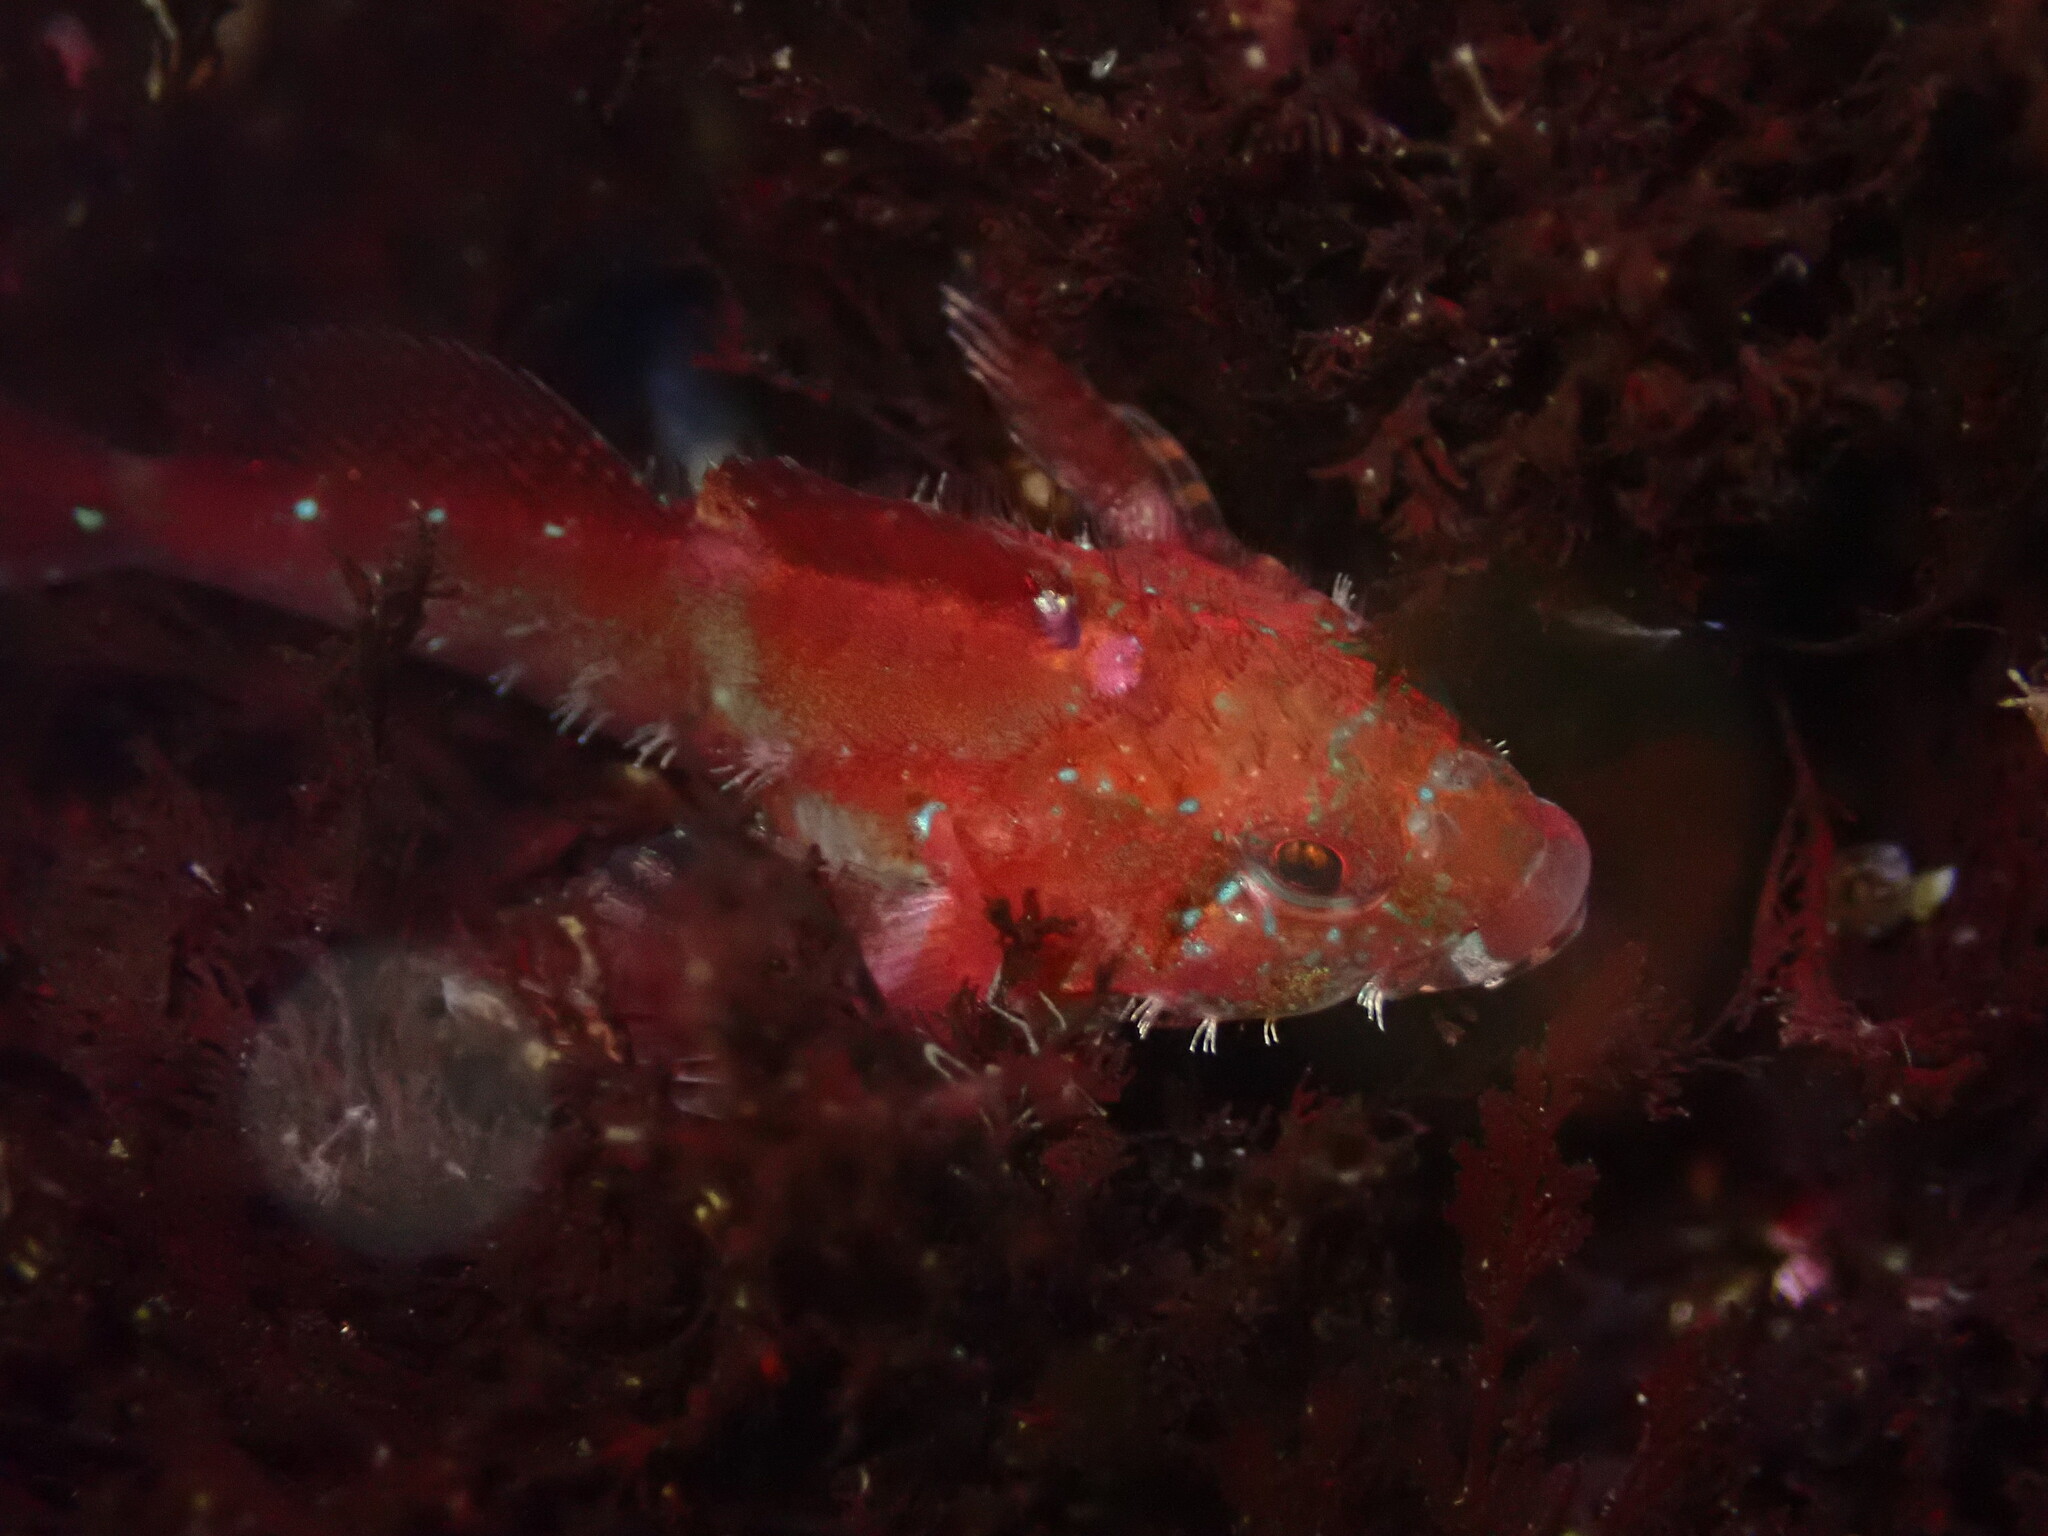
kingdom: Animalia
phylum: Chordata
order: Scorpaeniformes
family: Cottidae
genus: Oligocottus
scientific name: Oligocottus rubellio
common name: Rosy sculpin
